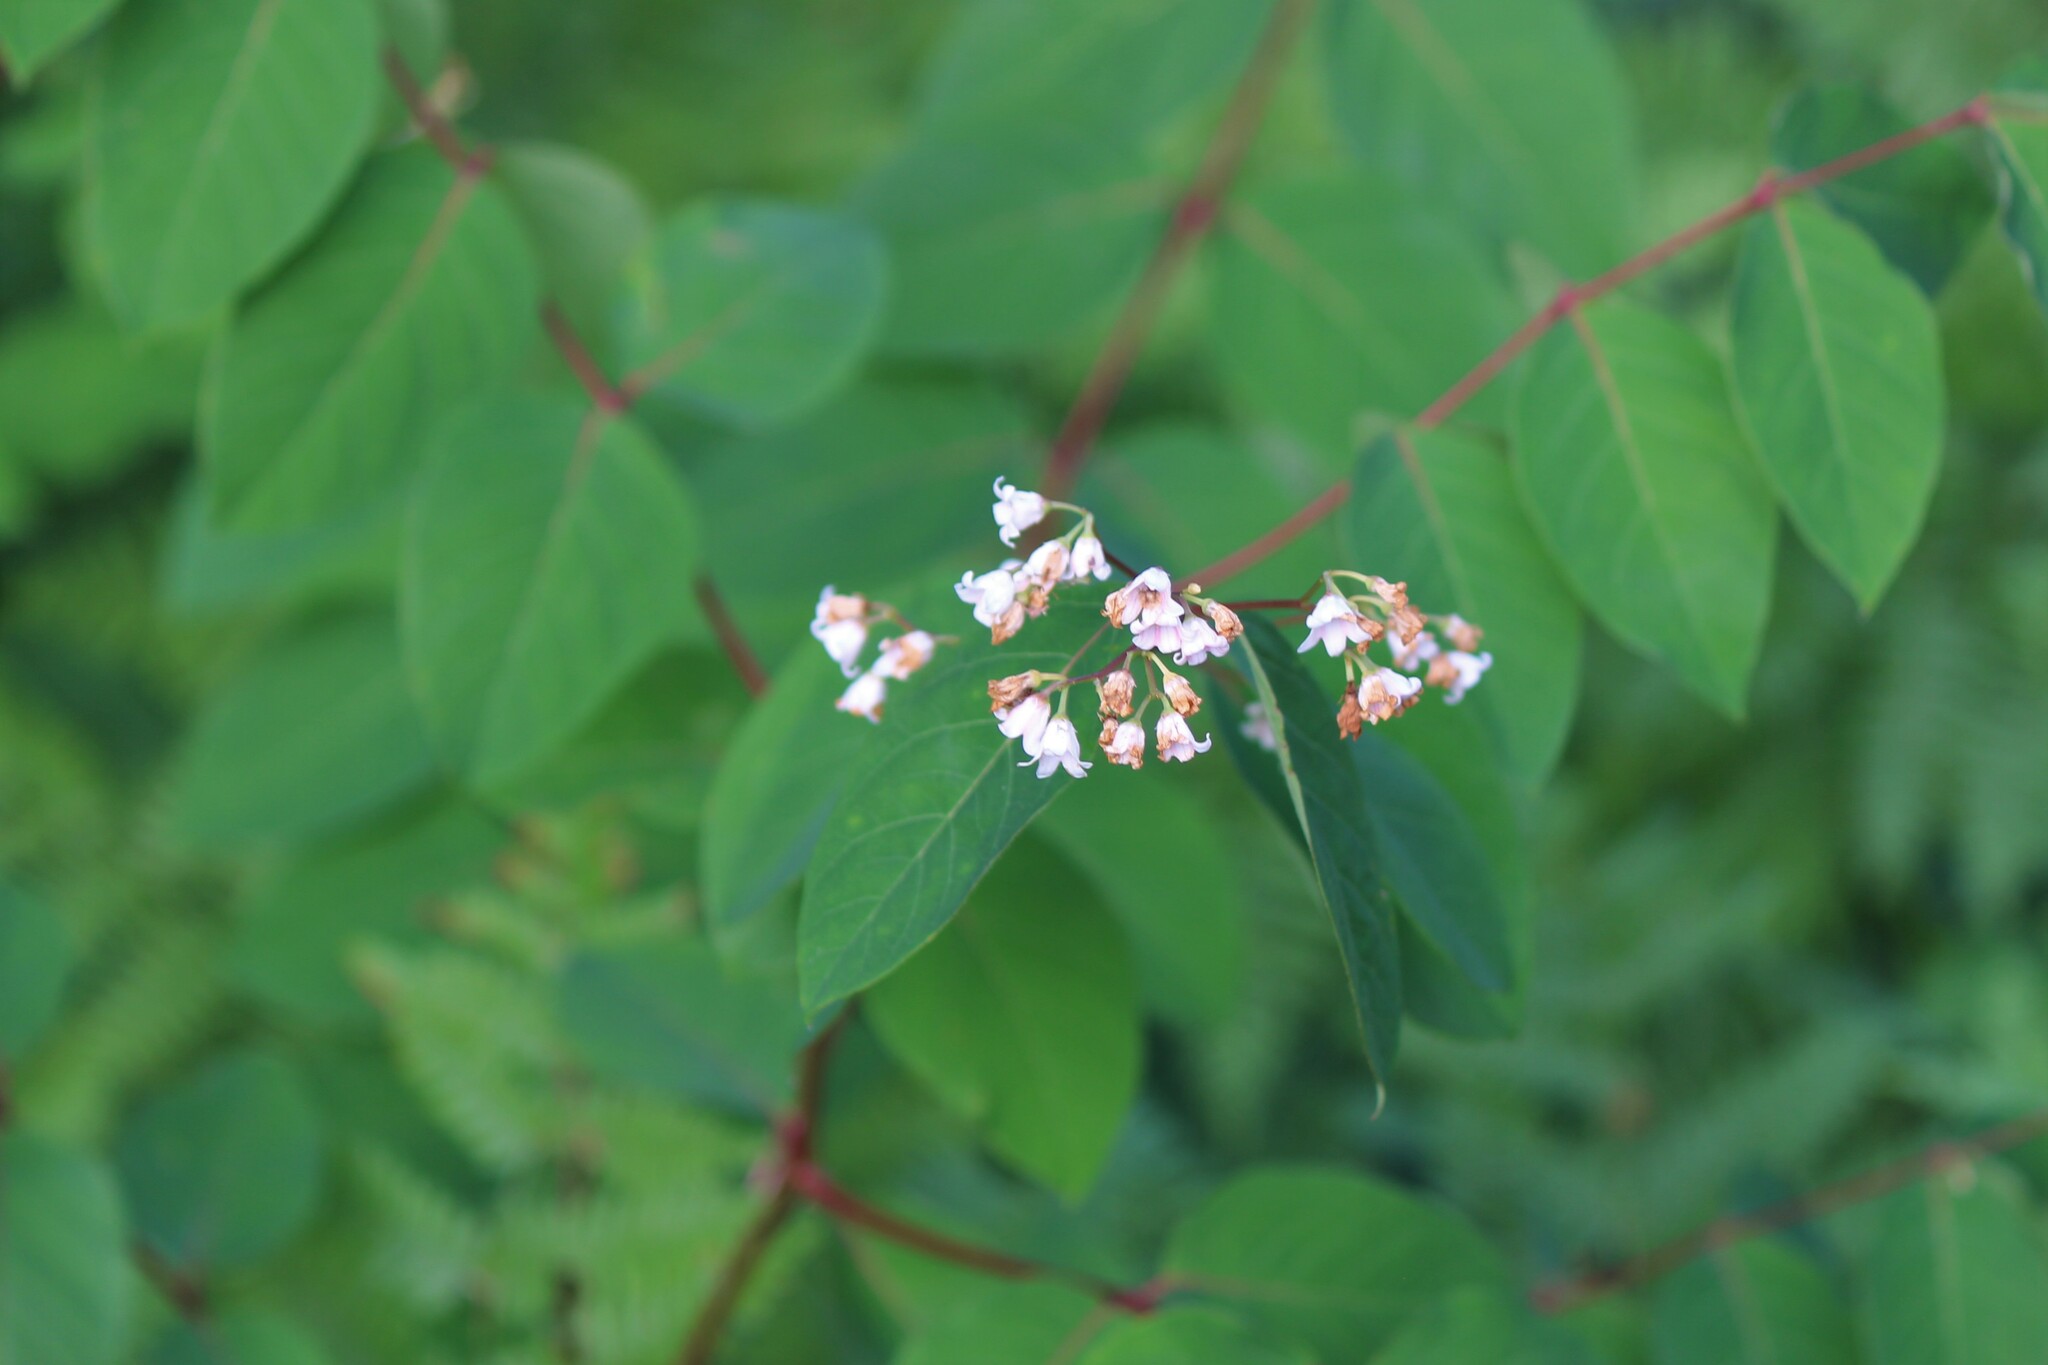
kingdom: Plantae
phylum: Tracheophyta
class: Magnoliopsida
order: Gentianales
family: Apocynaceae
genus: Apocynum
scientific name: Apocynum androsaemifolium
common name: Spreading dogbane
